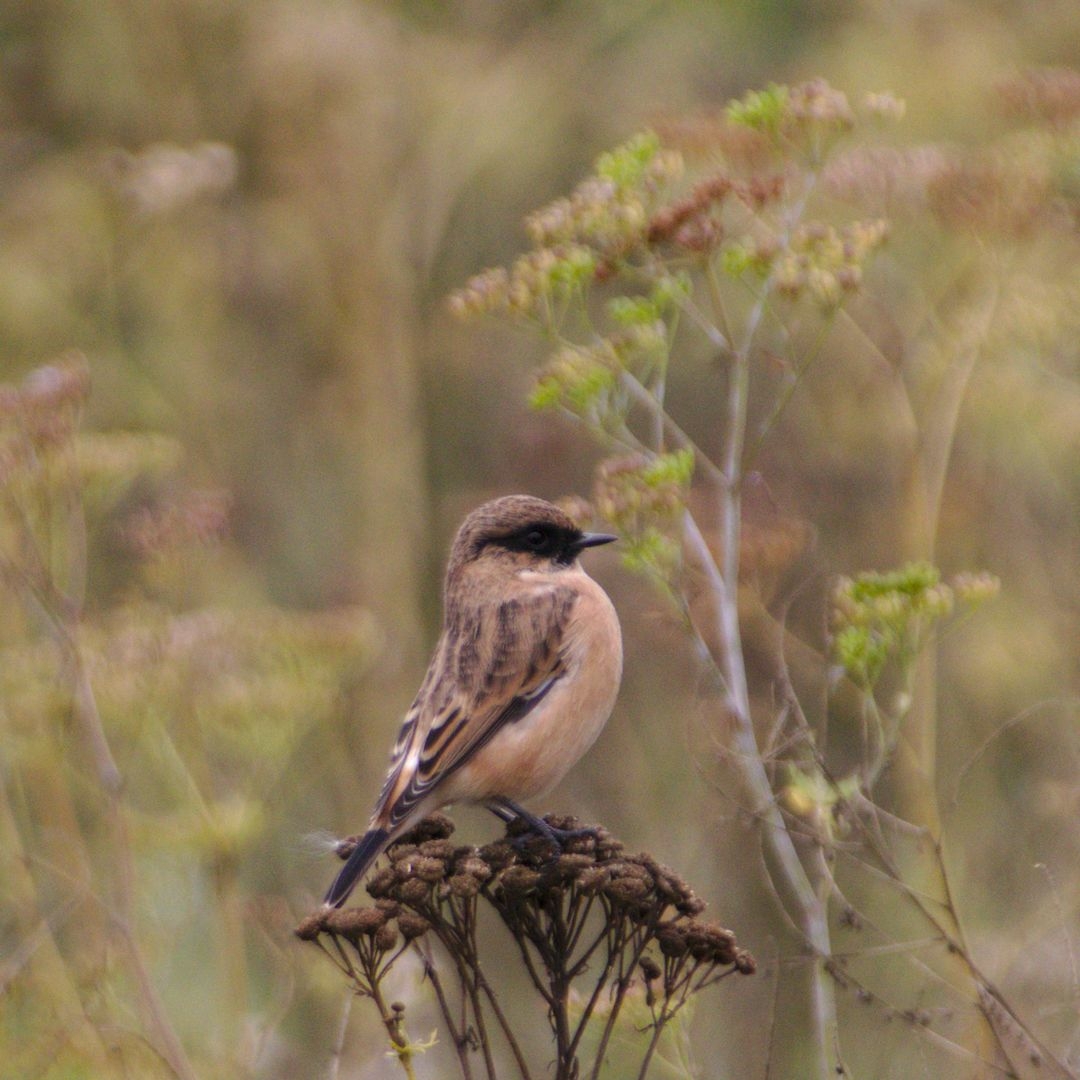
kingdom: Animalia
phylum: Chordata
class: Aves
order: Passeriformes
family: Muscicapidae
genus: Saxicola
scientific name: Saxicola maurus
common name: Siberian stonechat
